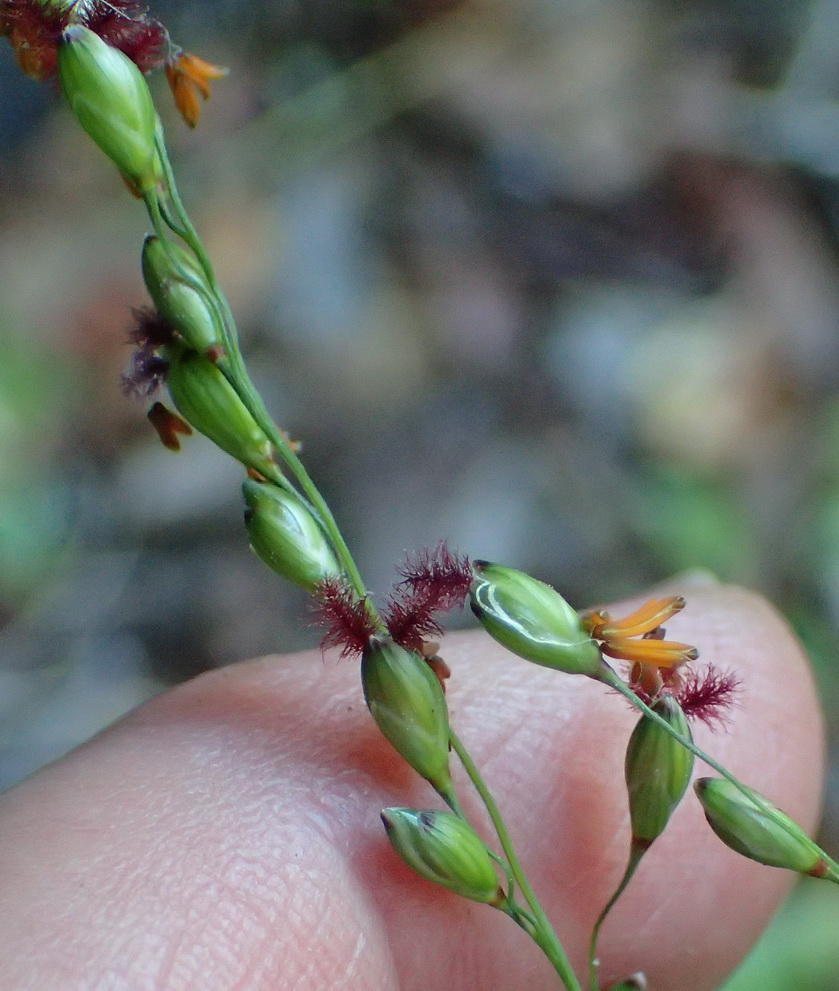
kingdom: Plantae
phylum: Tracheophyta
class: Liliopsida
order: Poales
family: Poaceae
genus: Panicum
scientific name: Panicum deustum
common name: Reed panicum
